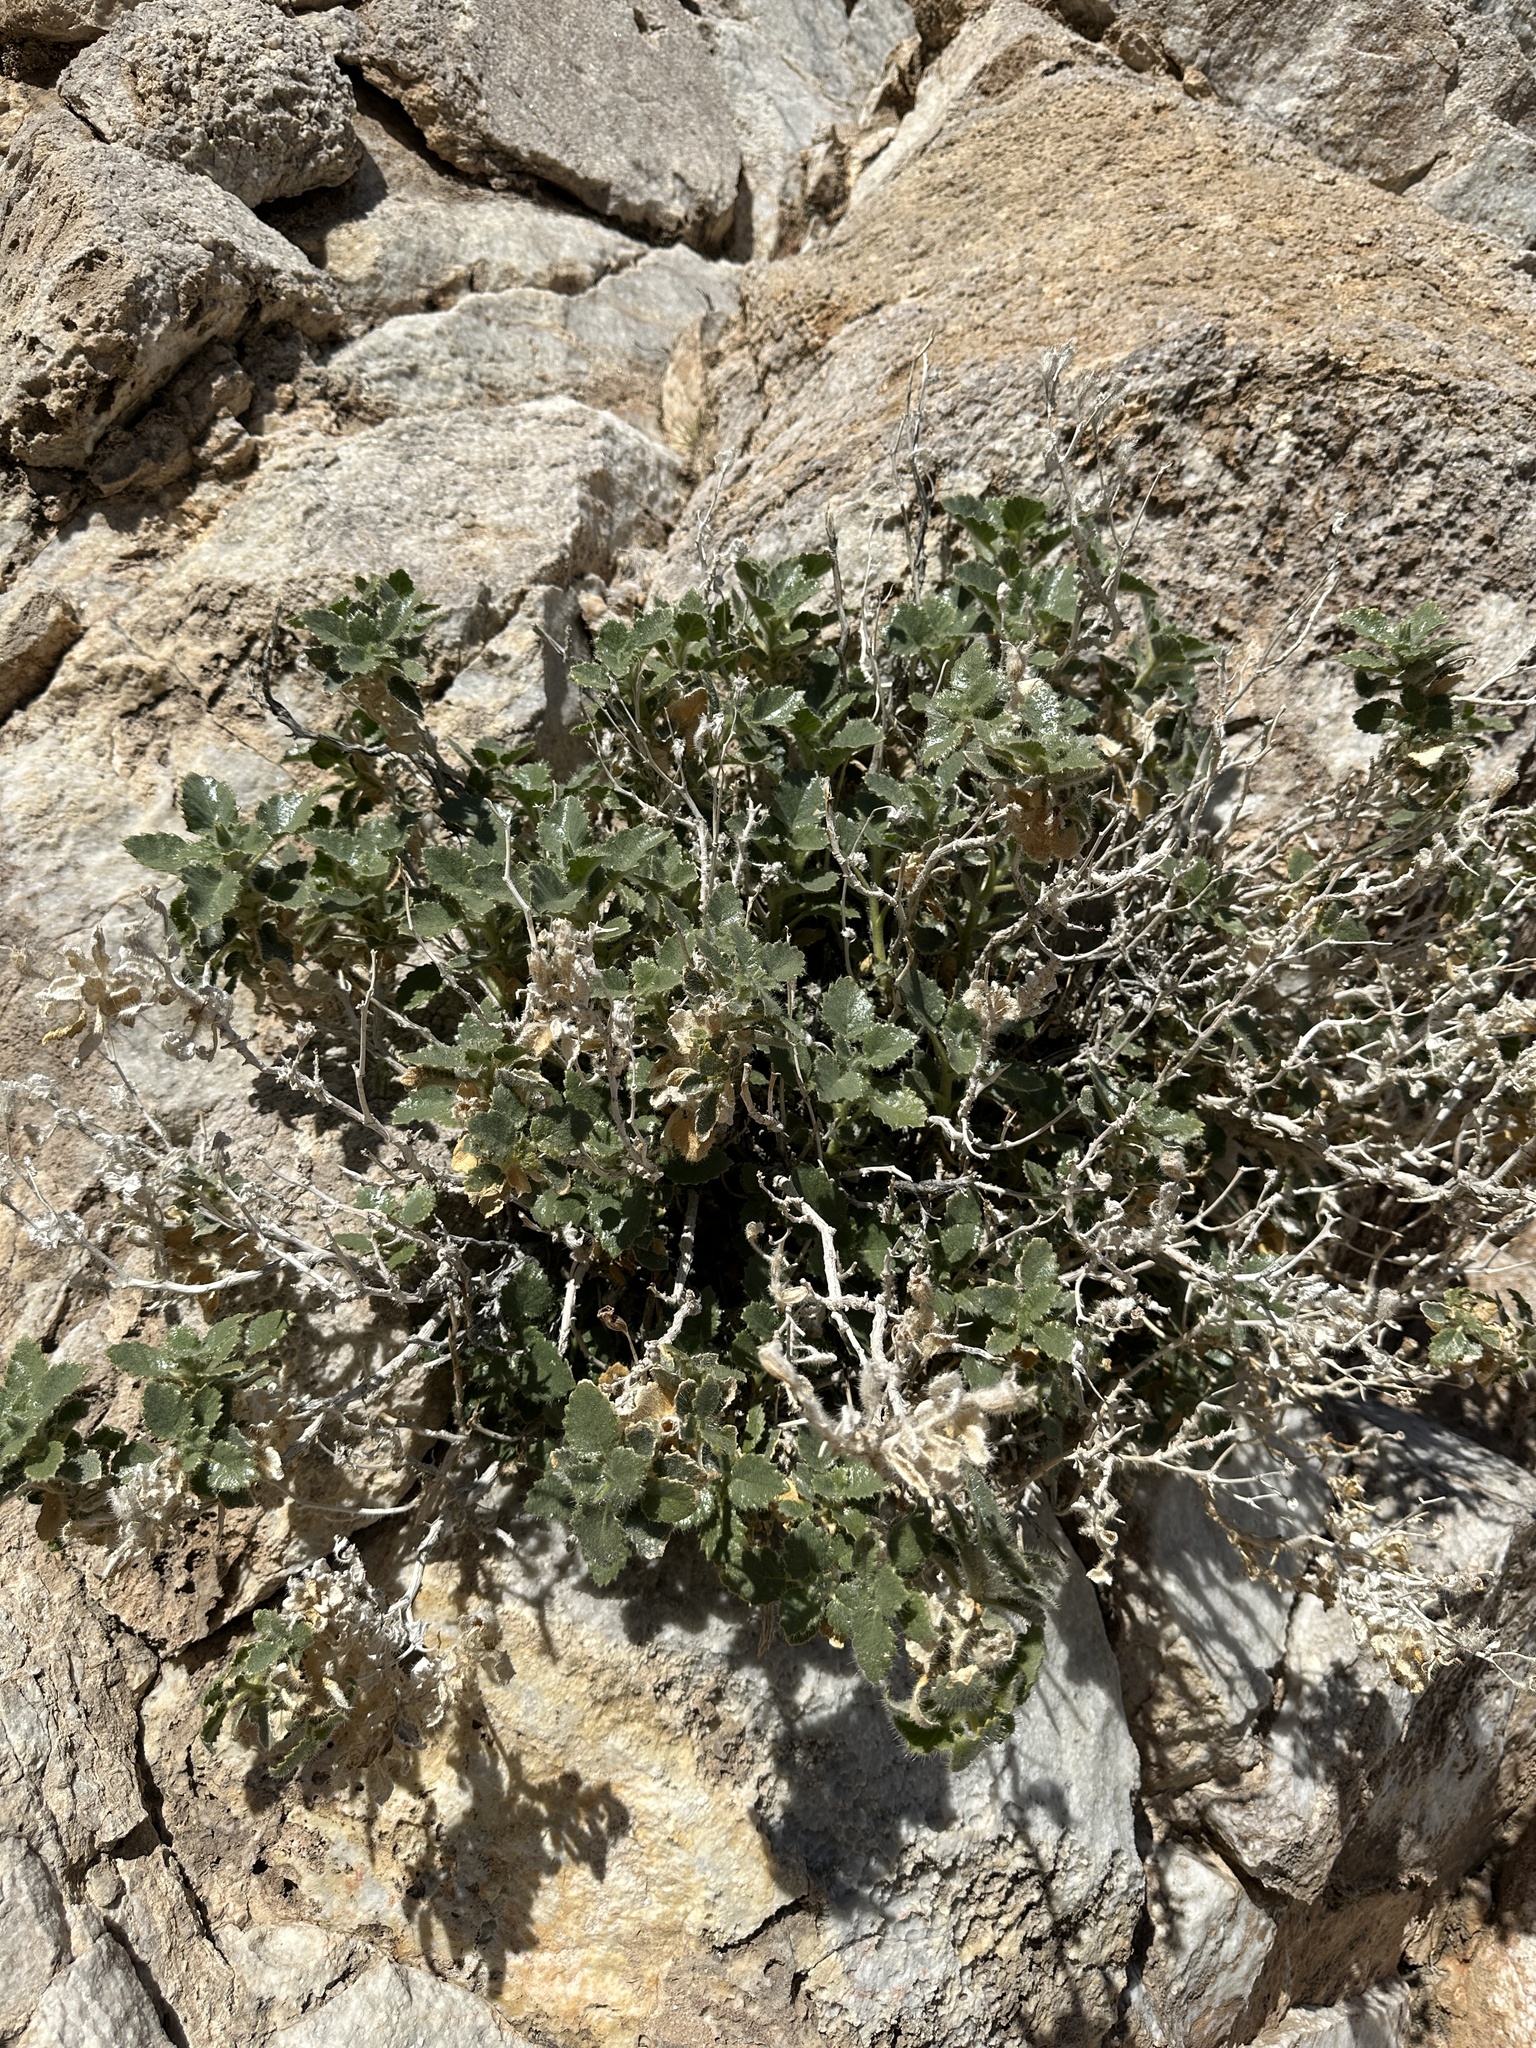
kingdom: Plantae
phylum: Tracheophyta
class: Magnoliopsida
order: Cornales
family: Loasaceae
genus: Eucnide
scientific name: Eucnide urens
